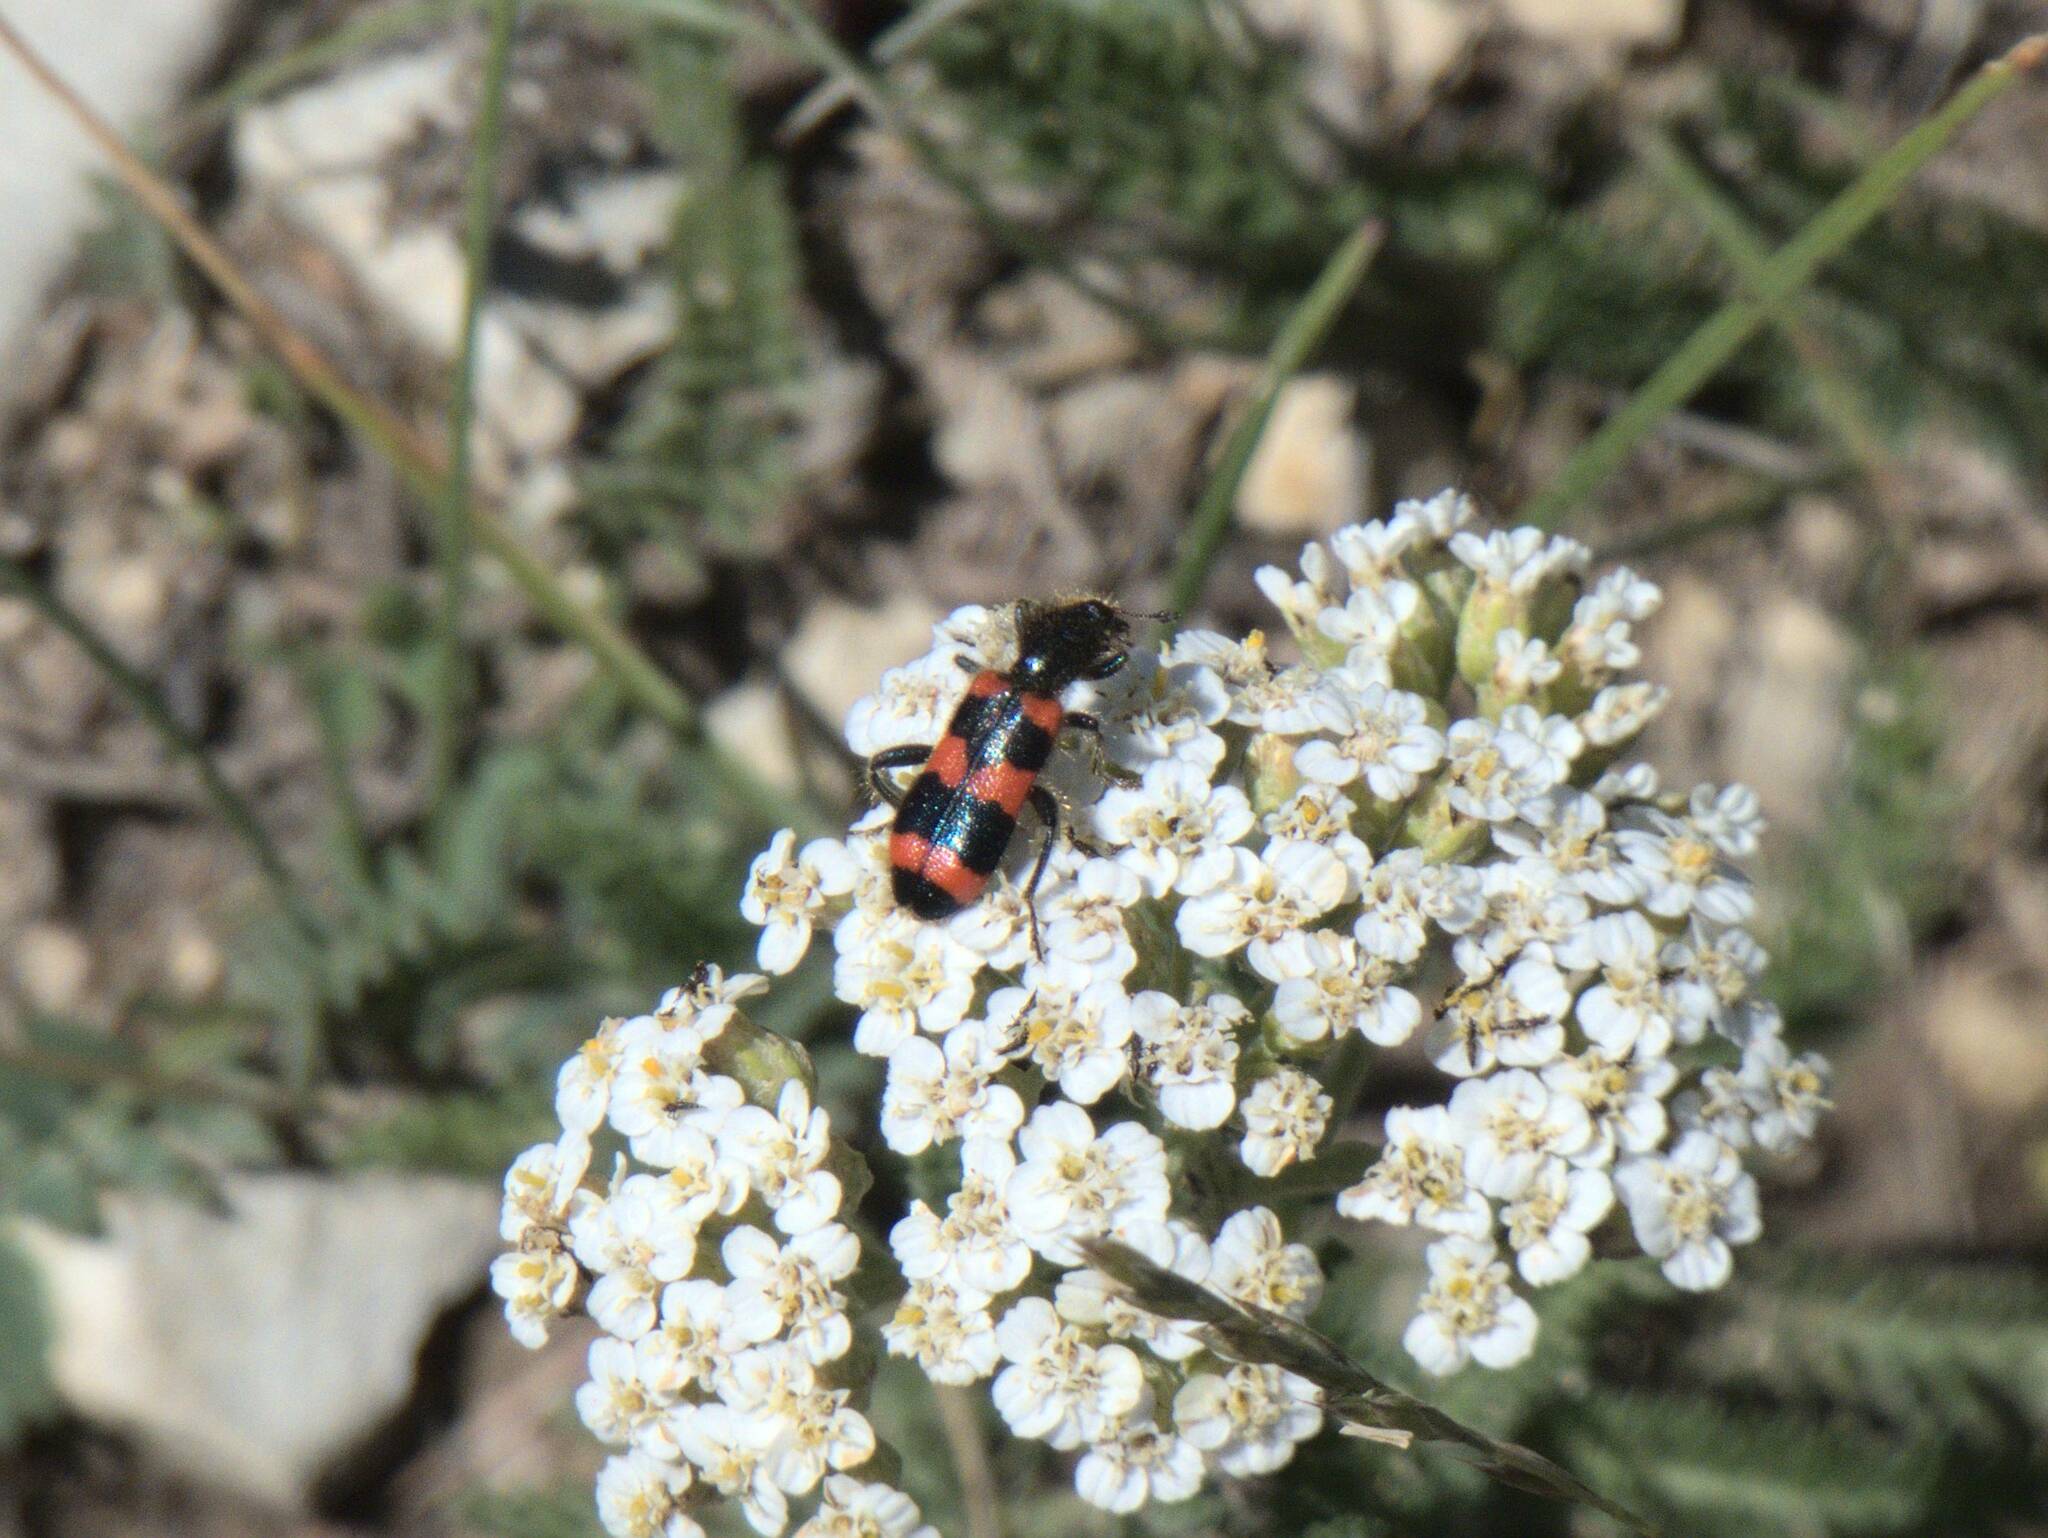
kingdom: Animalia
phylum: Arthropoda
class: Insecta
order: Coleoptera
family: Cleridae
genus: Trichodes
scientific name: Trichodes apiarius
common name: Bee-eating beetle
